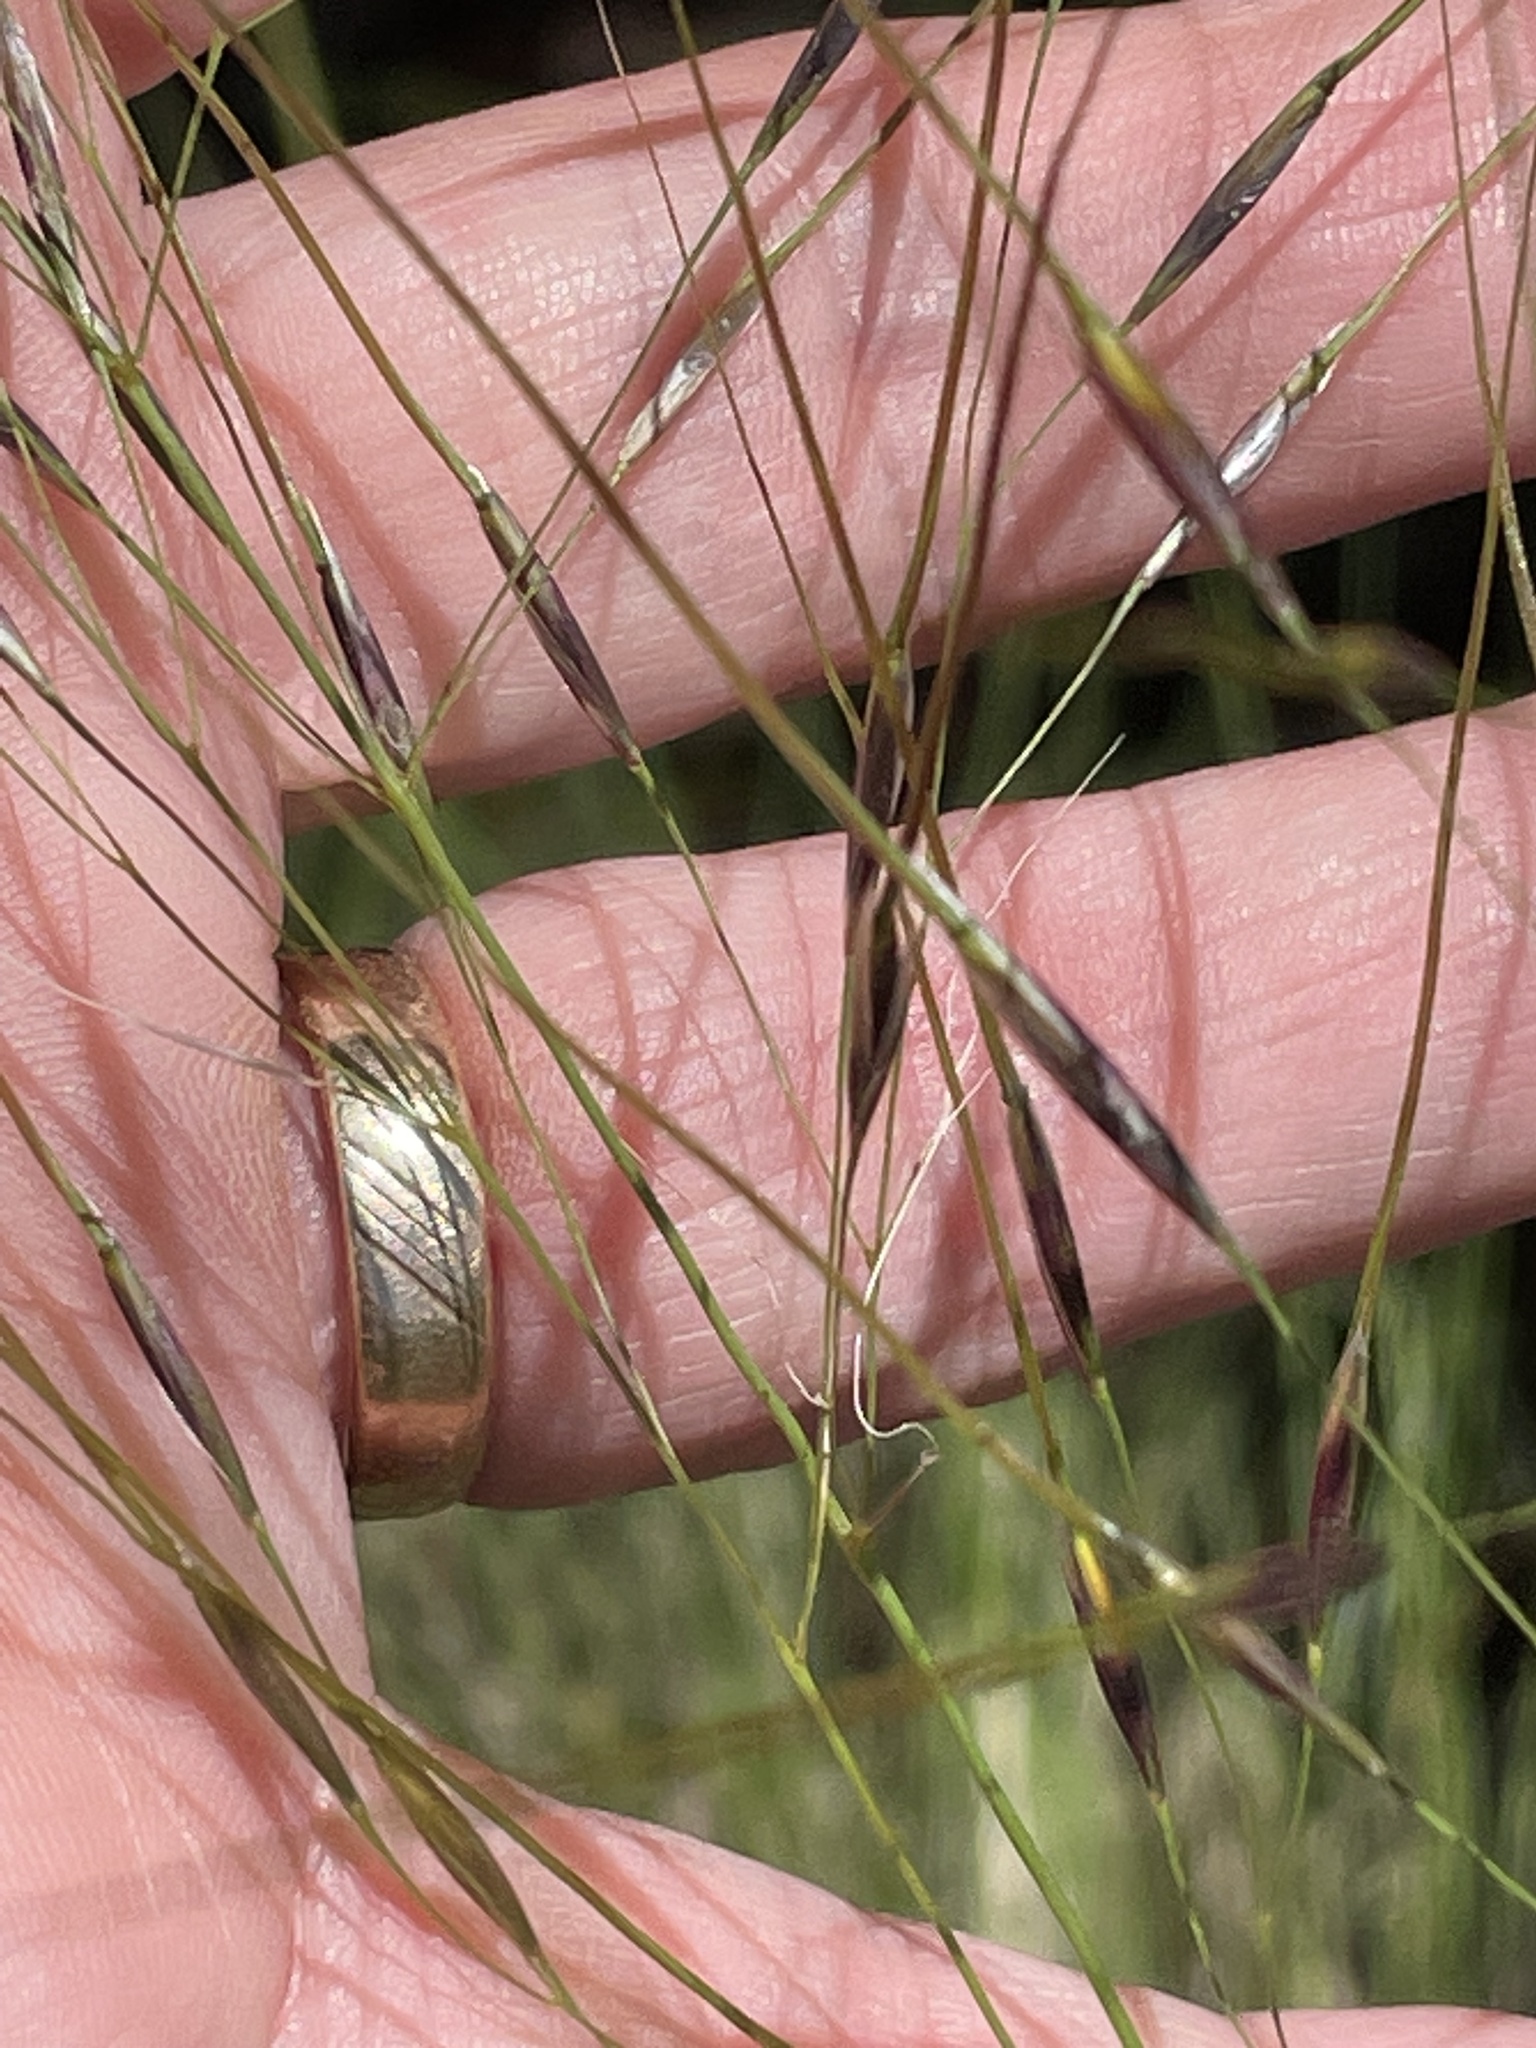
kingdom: Plantae
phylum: Tracheophyta
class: Liliopsida
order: Poales
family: Poaceae
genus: Piptochaetium
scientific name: Piptochaetium avenaceum
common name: Black bunchgrass
